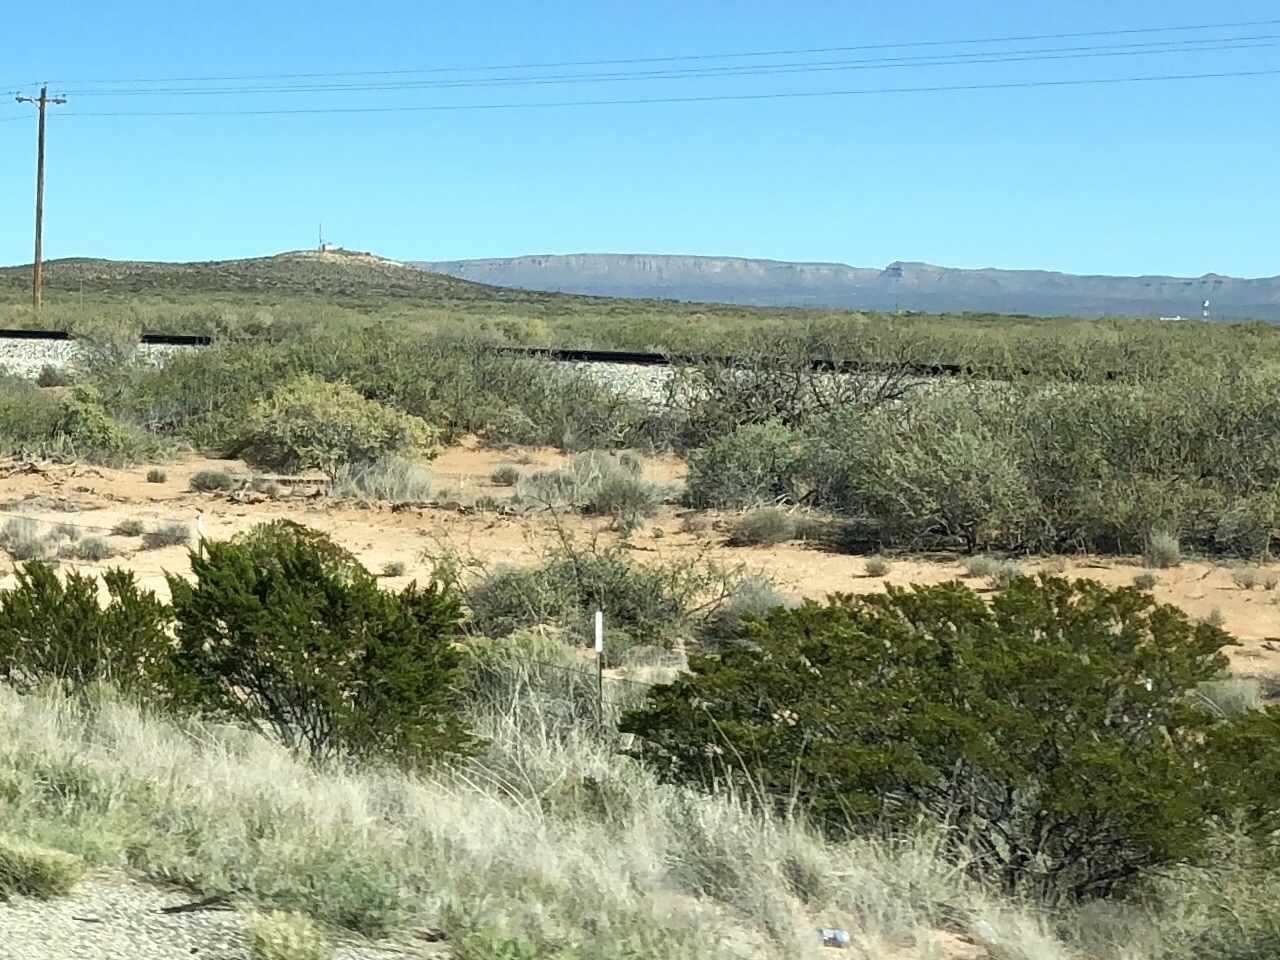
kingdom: Plantae
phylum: Tracheophyta
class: Magnoliopsida
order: Zygophyllales
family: Zygophyllaceae
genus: Larrea
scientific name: Larrea tridentata
